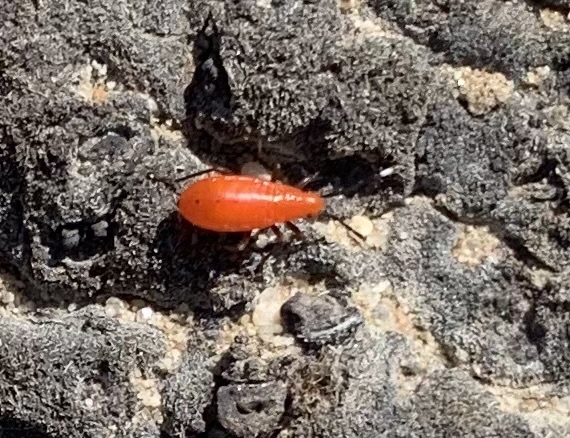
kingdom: Animalia
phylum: Arthropoda
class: Insecta
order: Hemiptera
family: Pyrrhocoridae
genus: Probergrothius
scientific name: Probergrothius angolensis
